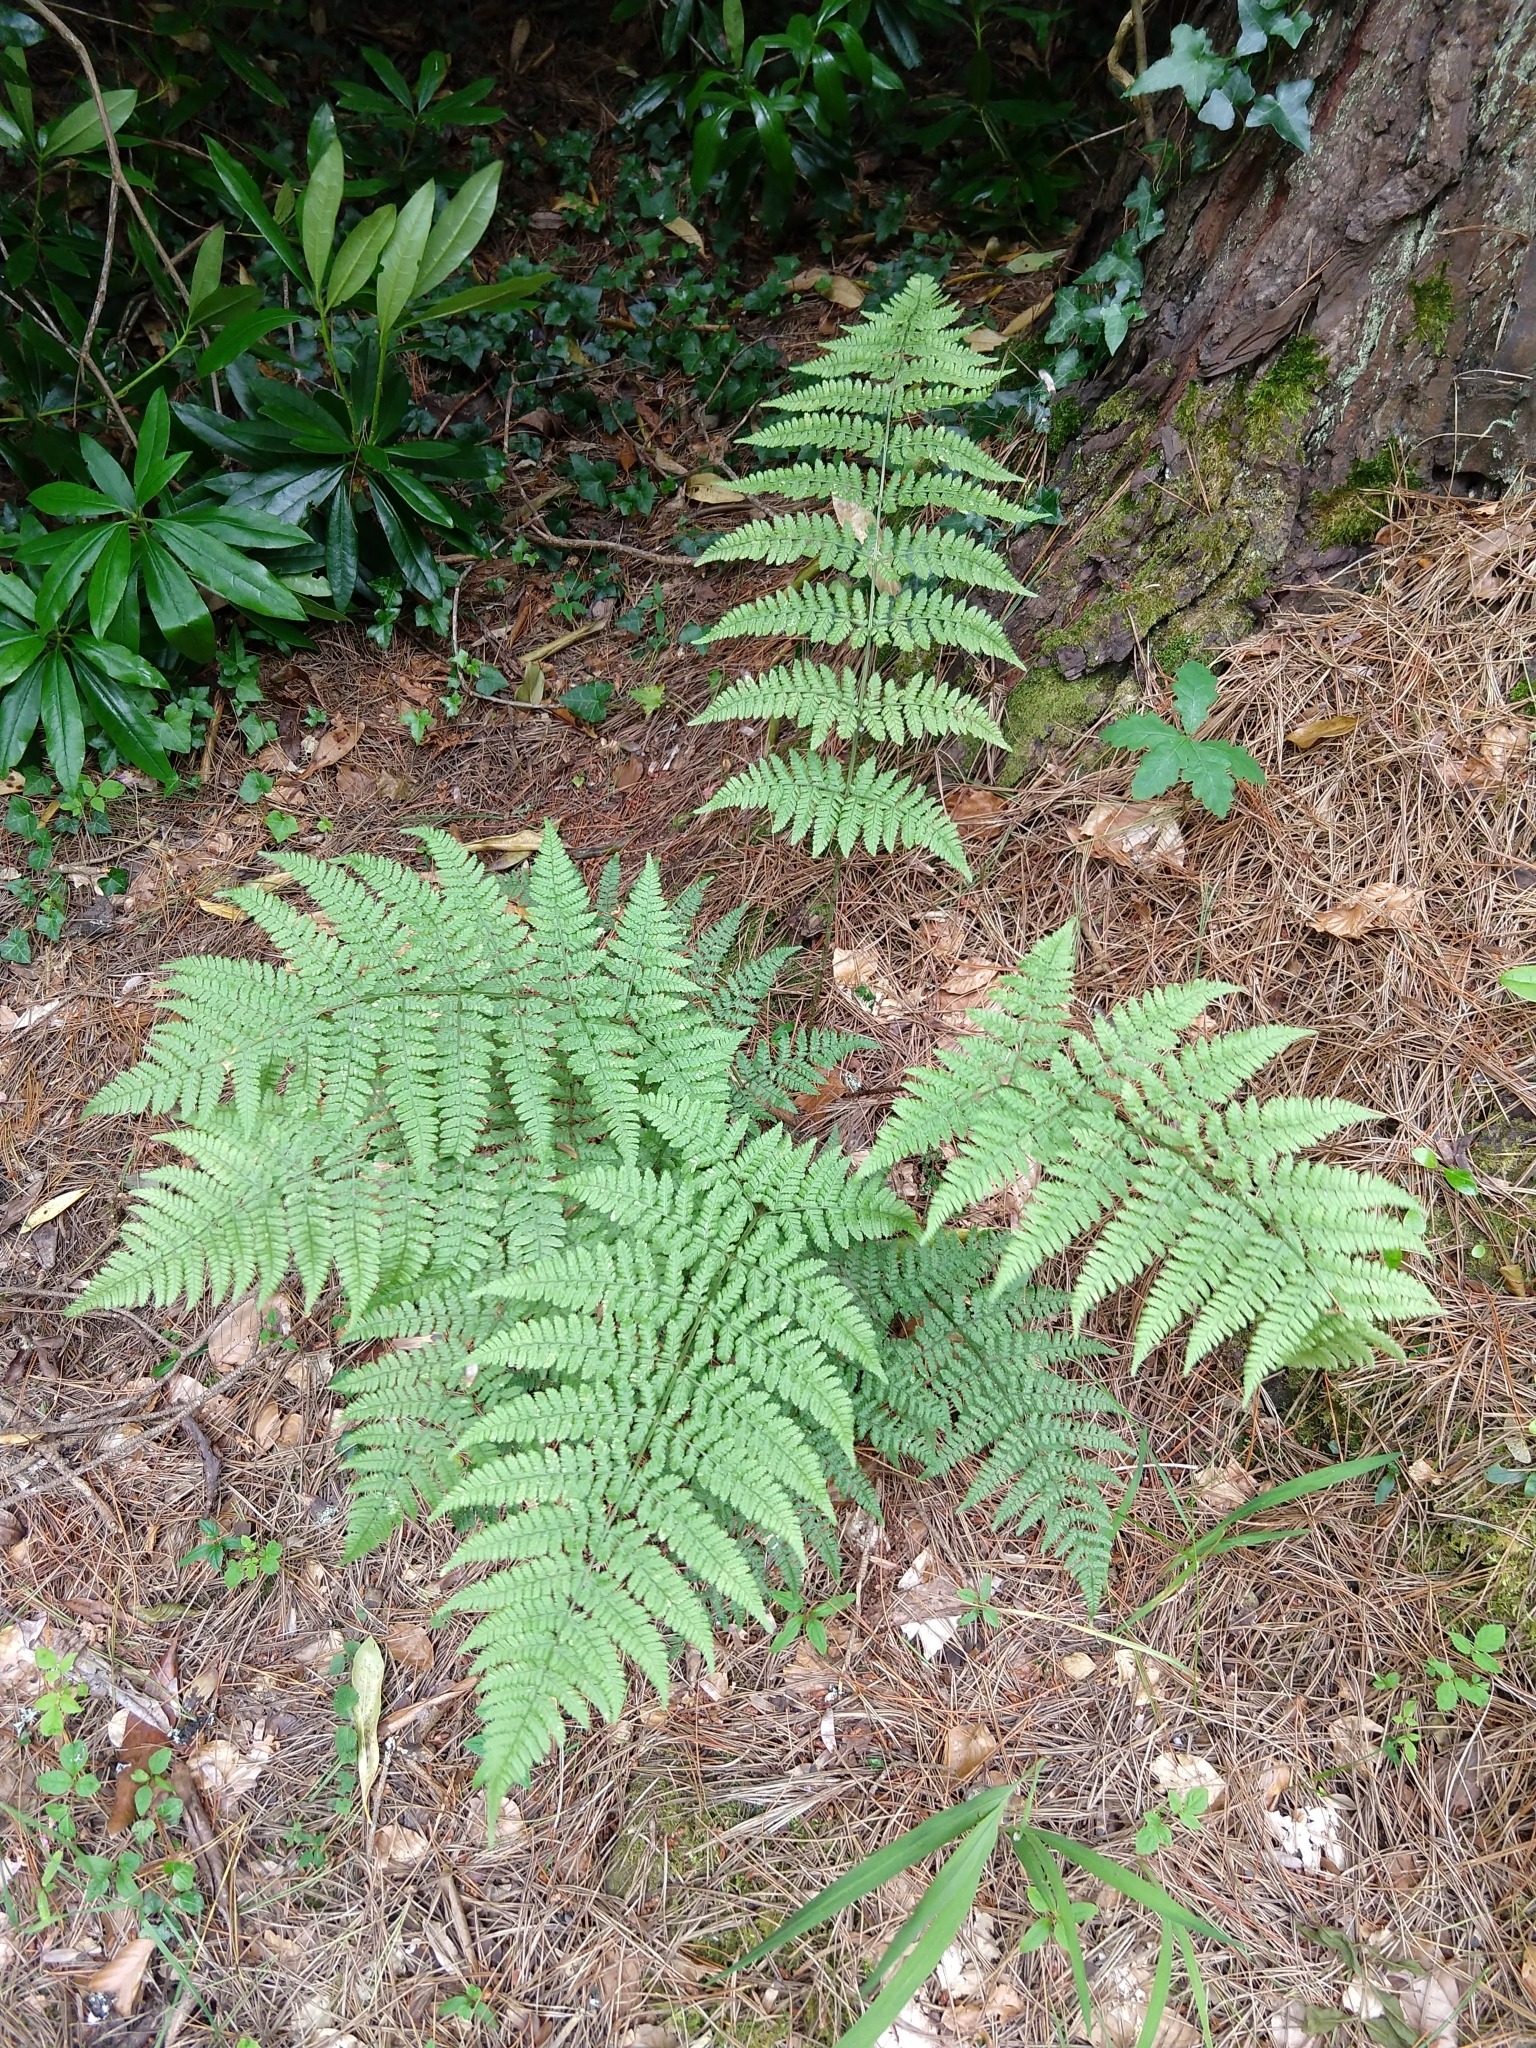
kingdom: Plantae
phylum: Tracheophyta
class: Polypodiopsida
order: Polypodiales
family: Dryopteridaceae
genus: Dryopteris
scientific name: Dryopteris dilatata
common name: Broad buckler-fern
